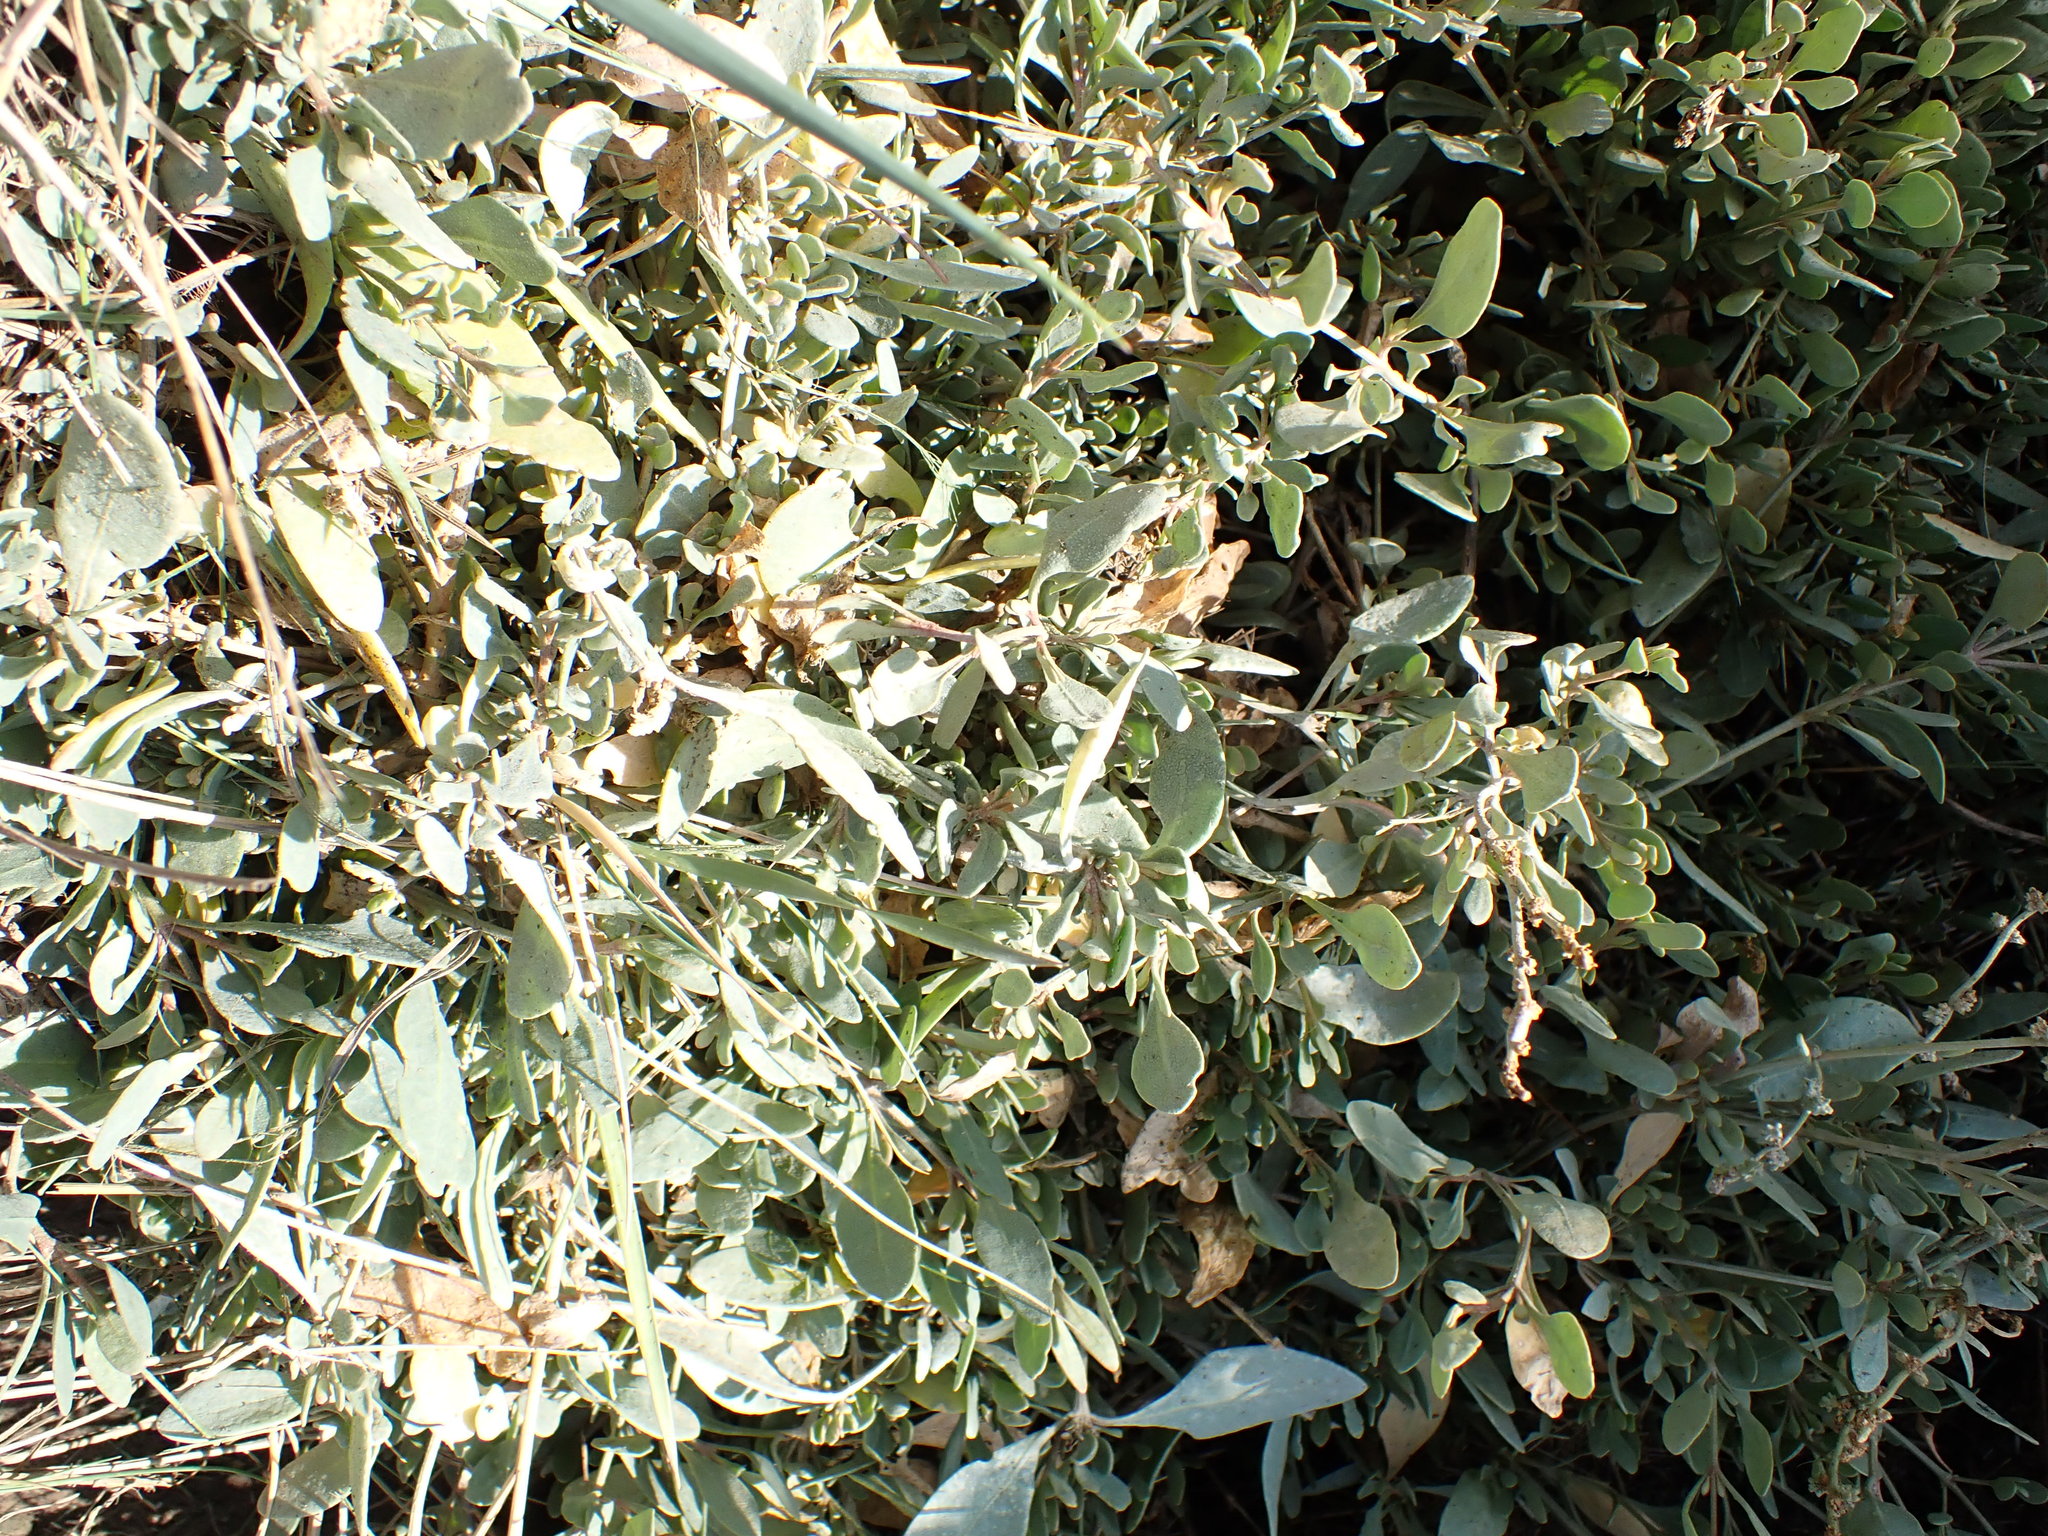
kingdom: Plantae
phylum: Tracheophyta
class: Magnoliopsida
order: Caryophyllales
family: Amaranthaceae
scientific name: Amaranthaceae
